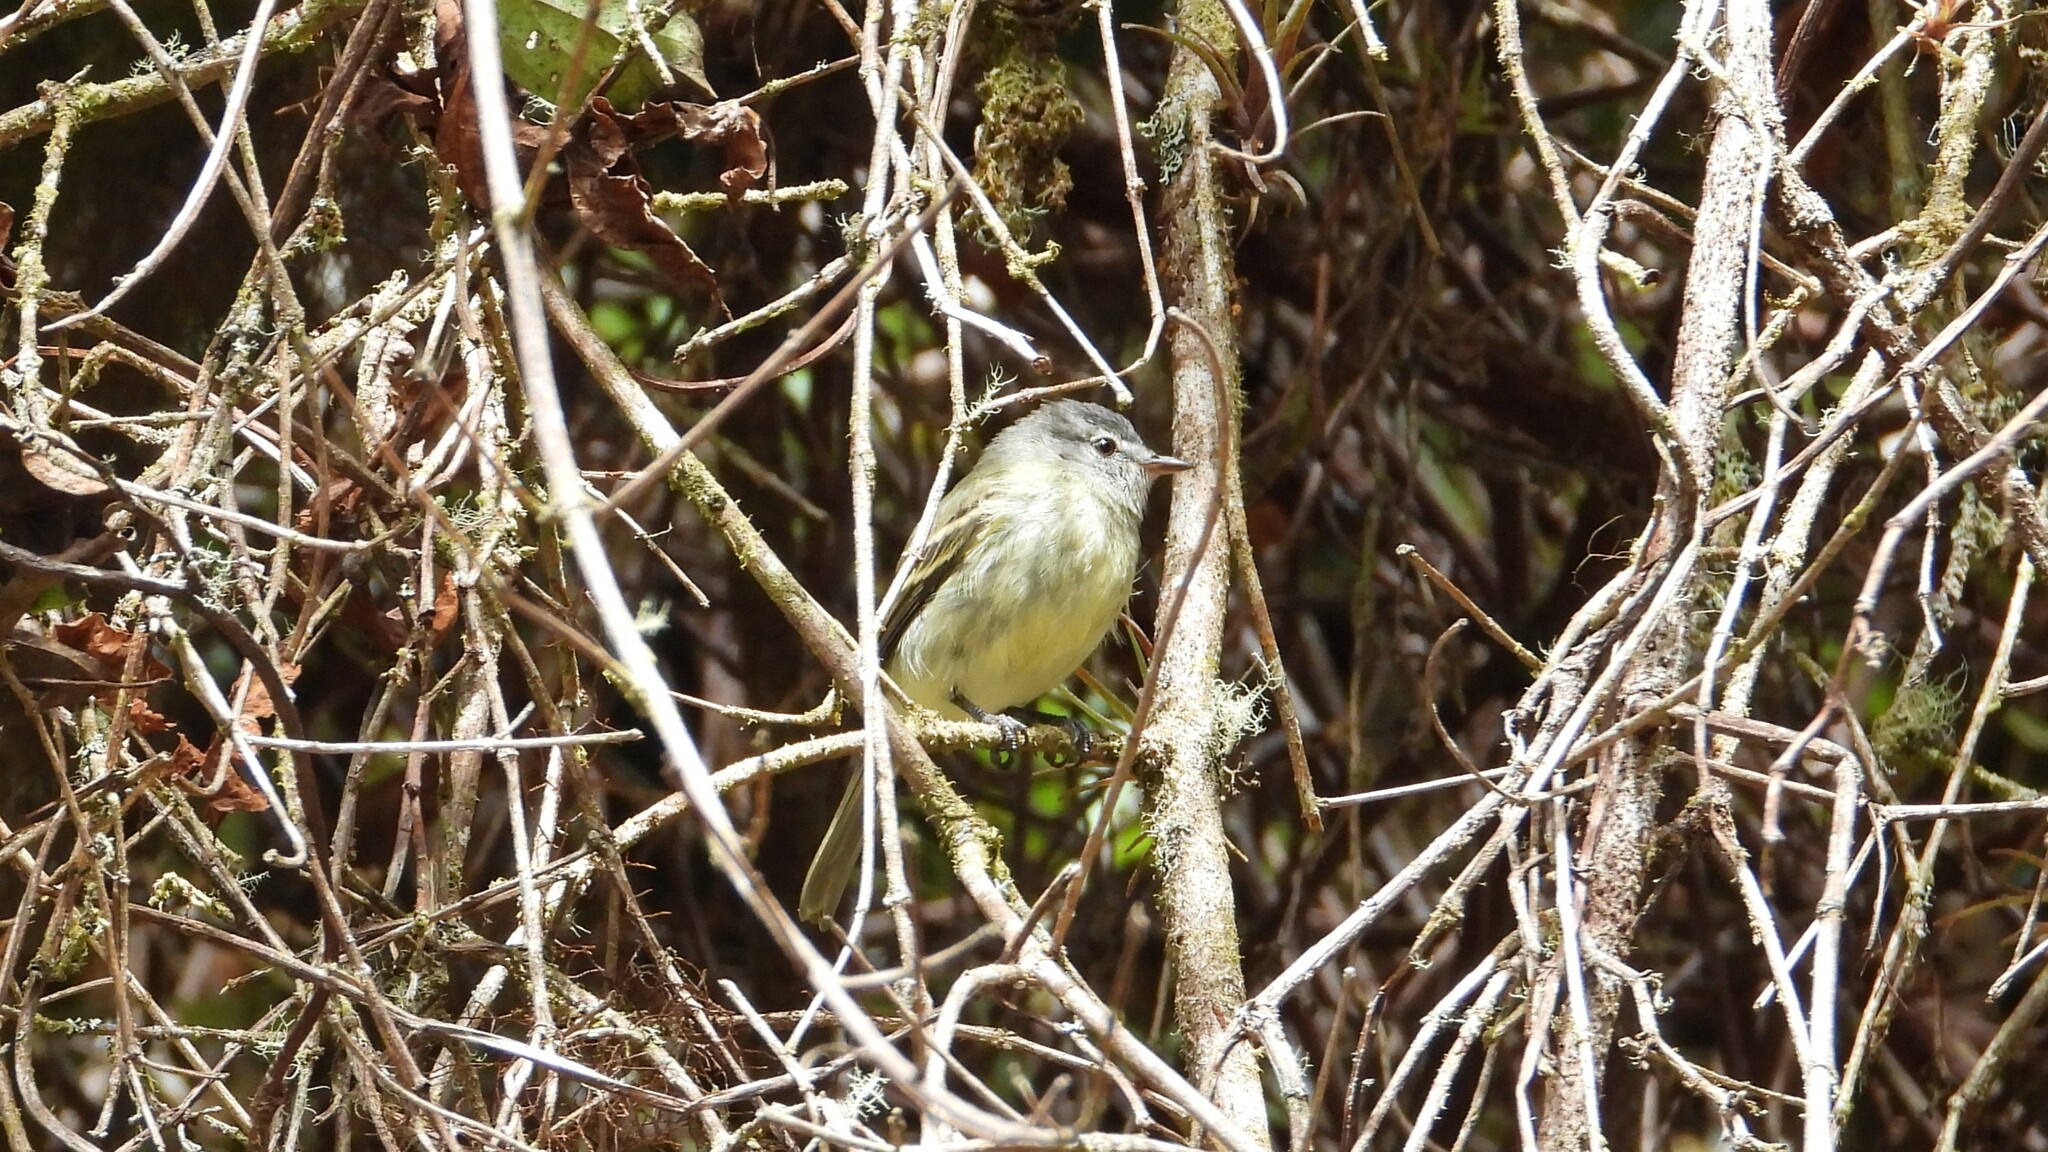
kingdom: Animalia
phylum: Chordata
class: Aves
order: Passeriformes
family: Tyrannidae
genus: Phyllomyias
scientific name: Phyllomyias burmeisteri
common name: Rough-legged tyrannulet
